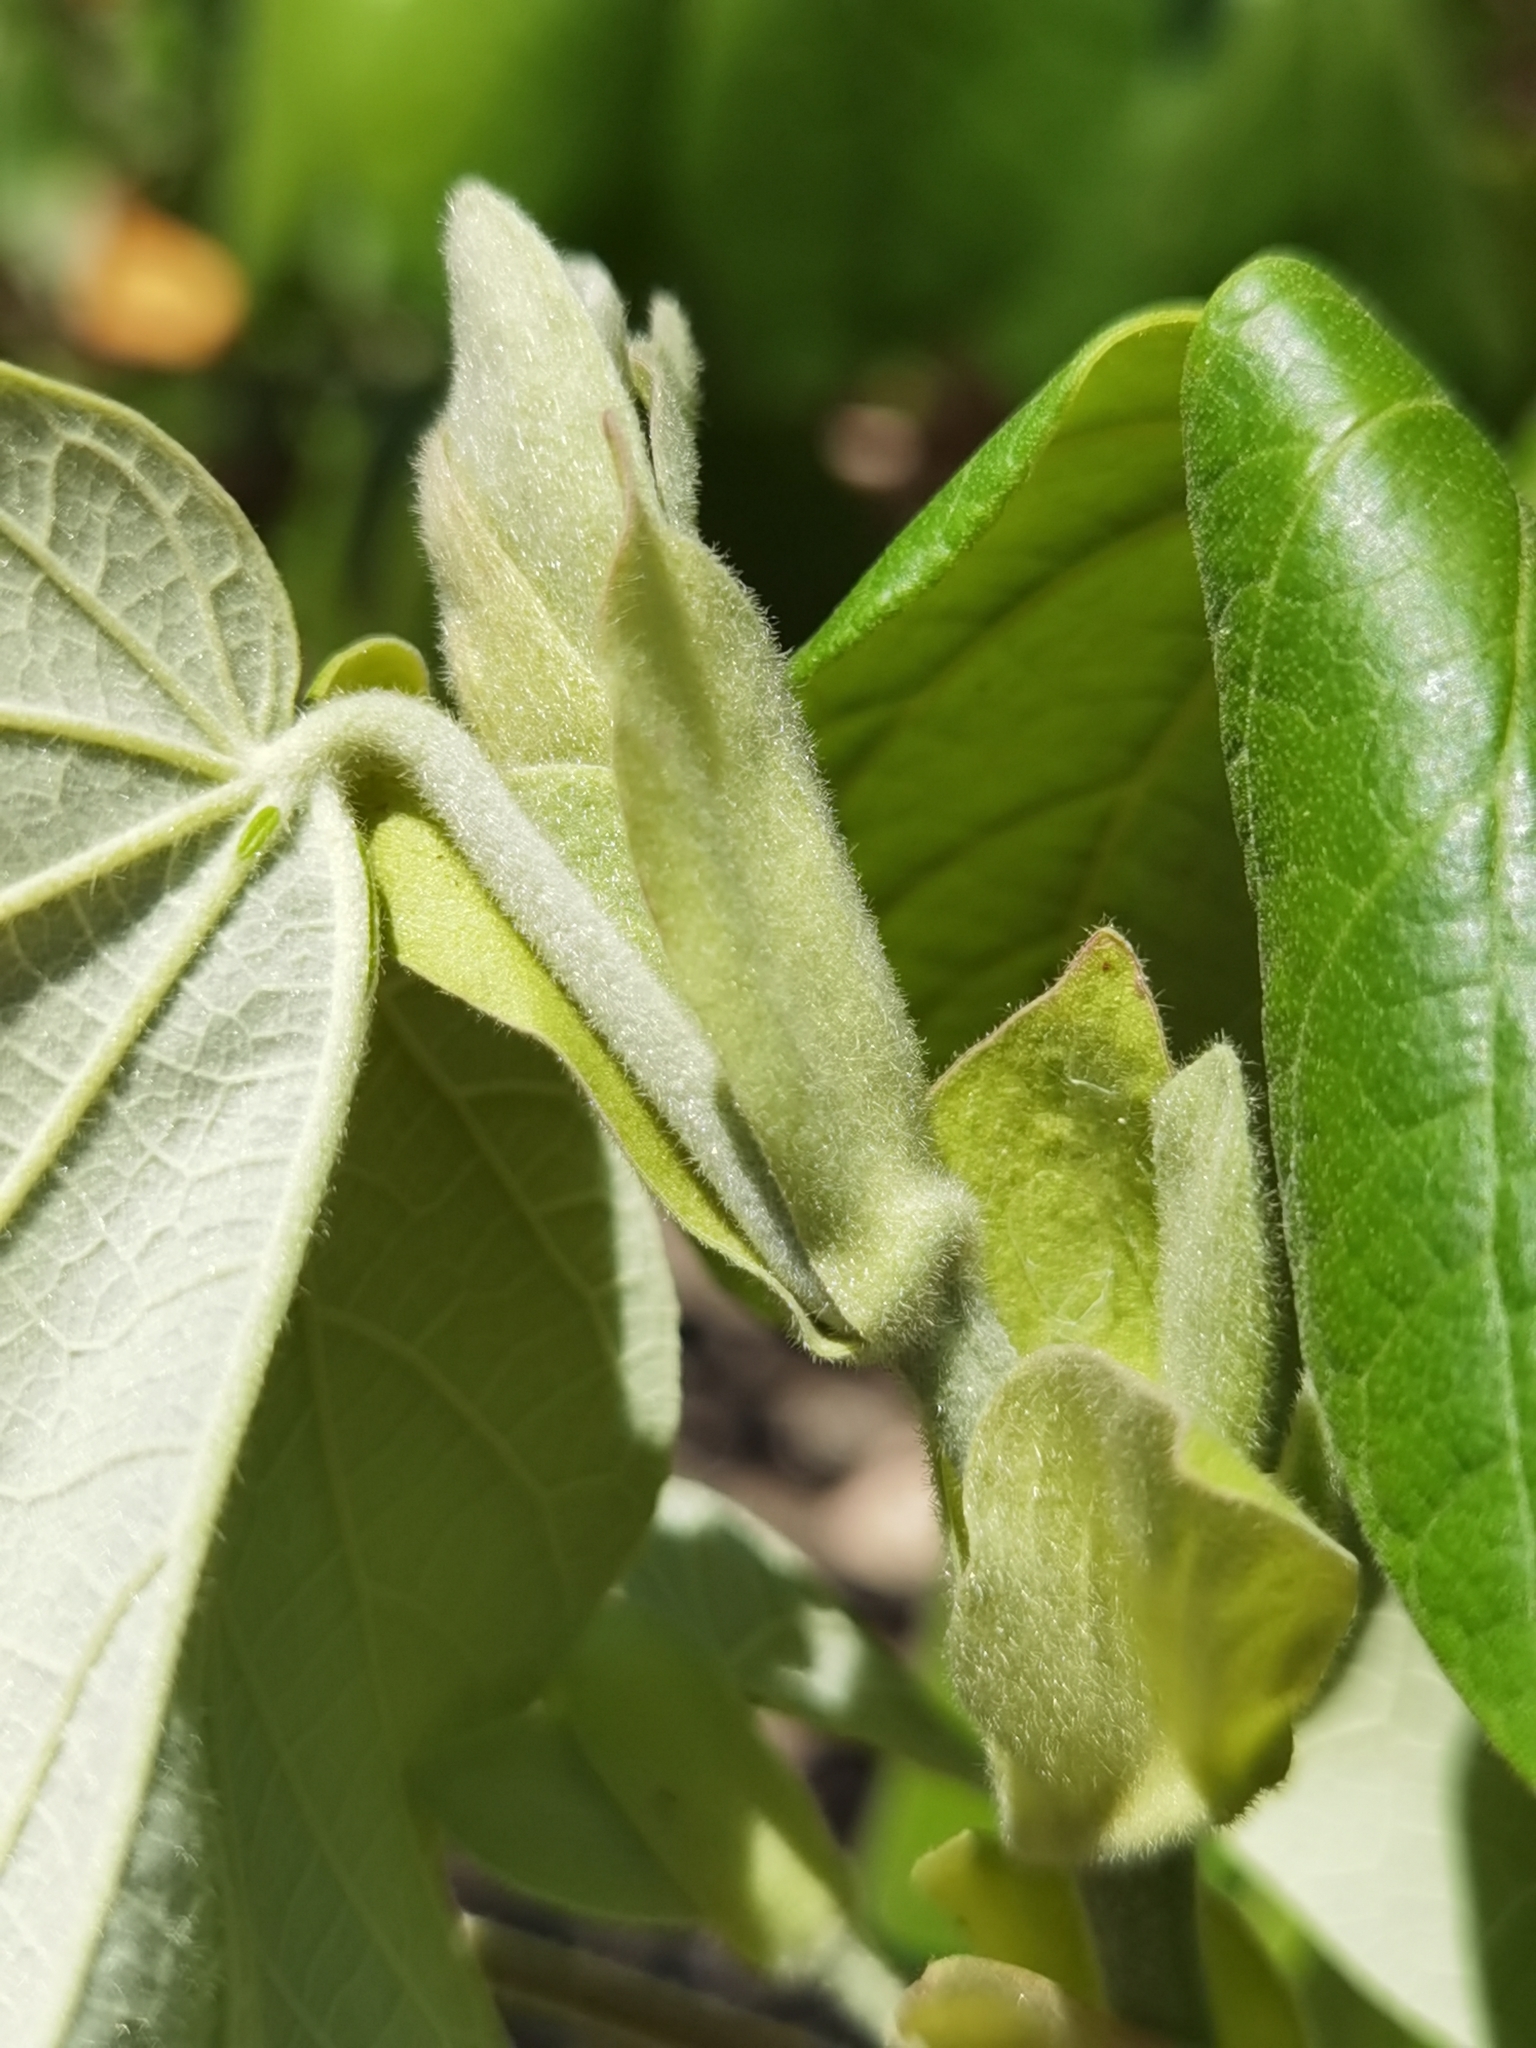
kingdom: Plantae
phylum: Tracheophyta
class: Magnoliopsida
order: Malvales
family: Malvaceae
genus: Talipariti
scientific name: Talipariti pernambucense
